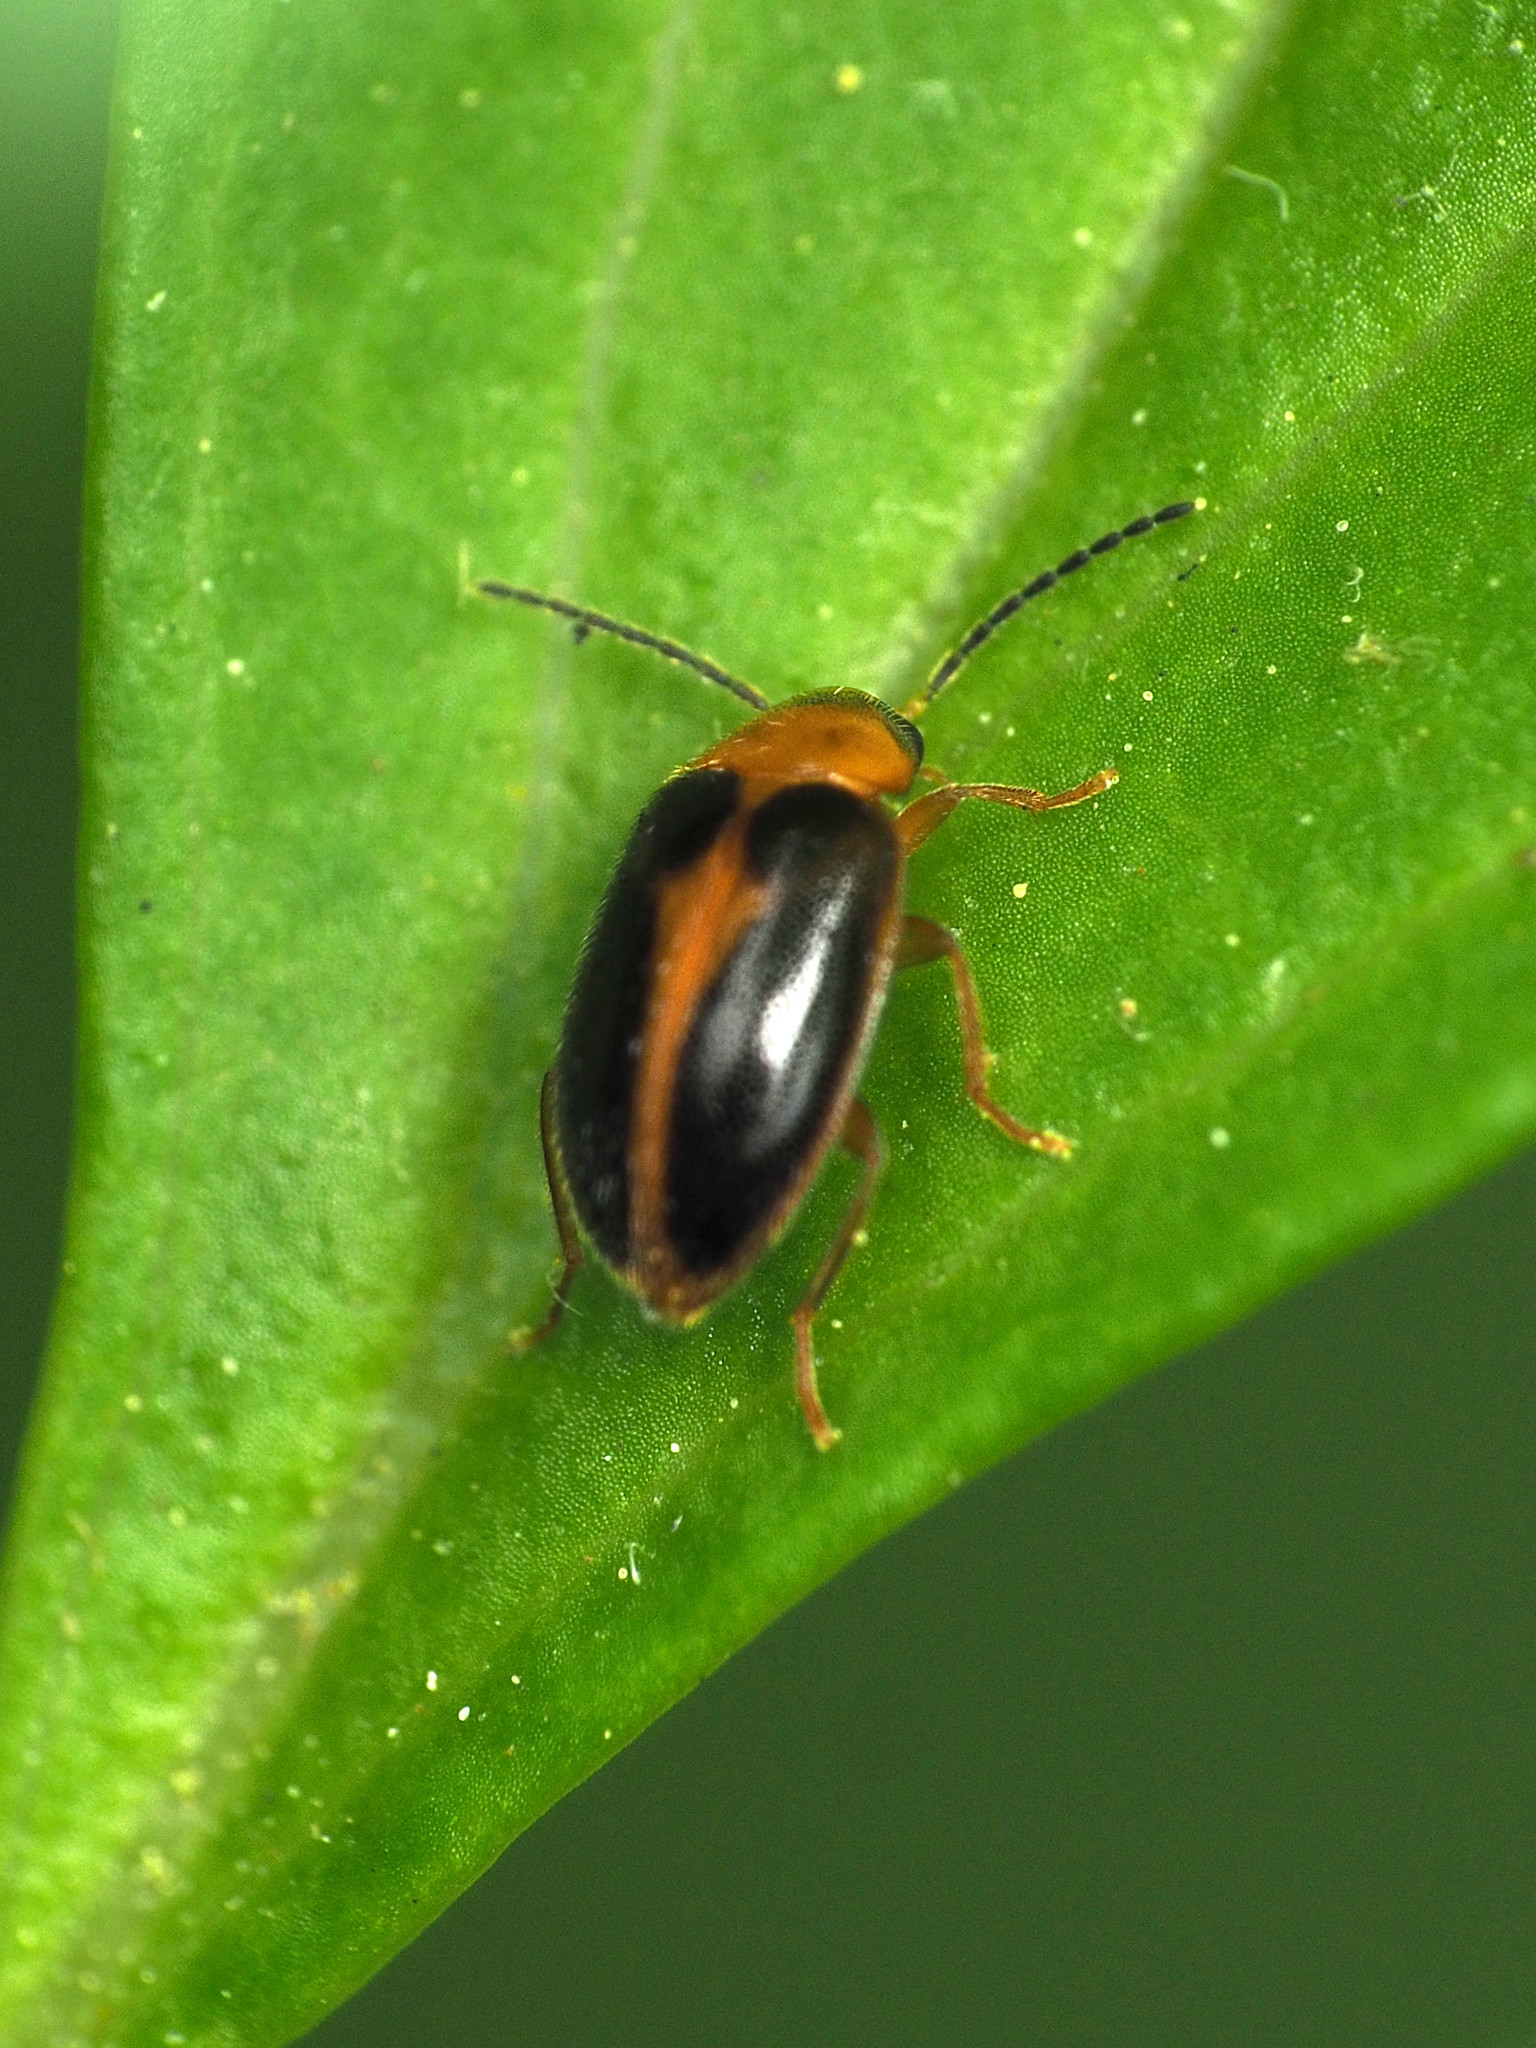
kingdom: Animalia
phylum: Arthropoda
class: Insecta
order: Coleoptera
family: Scirtidae
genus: Sacodes
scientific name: Sacodes pulchella
